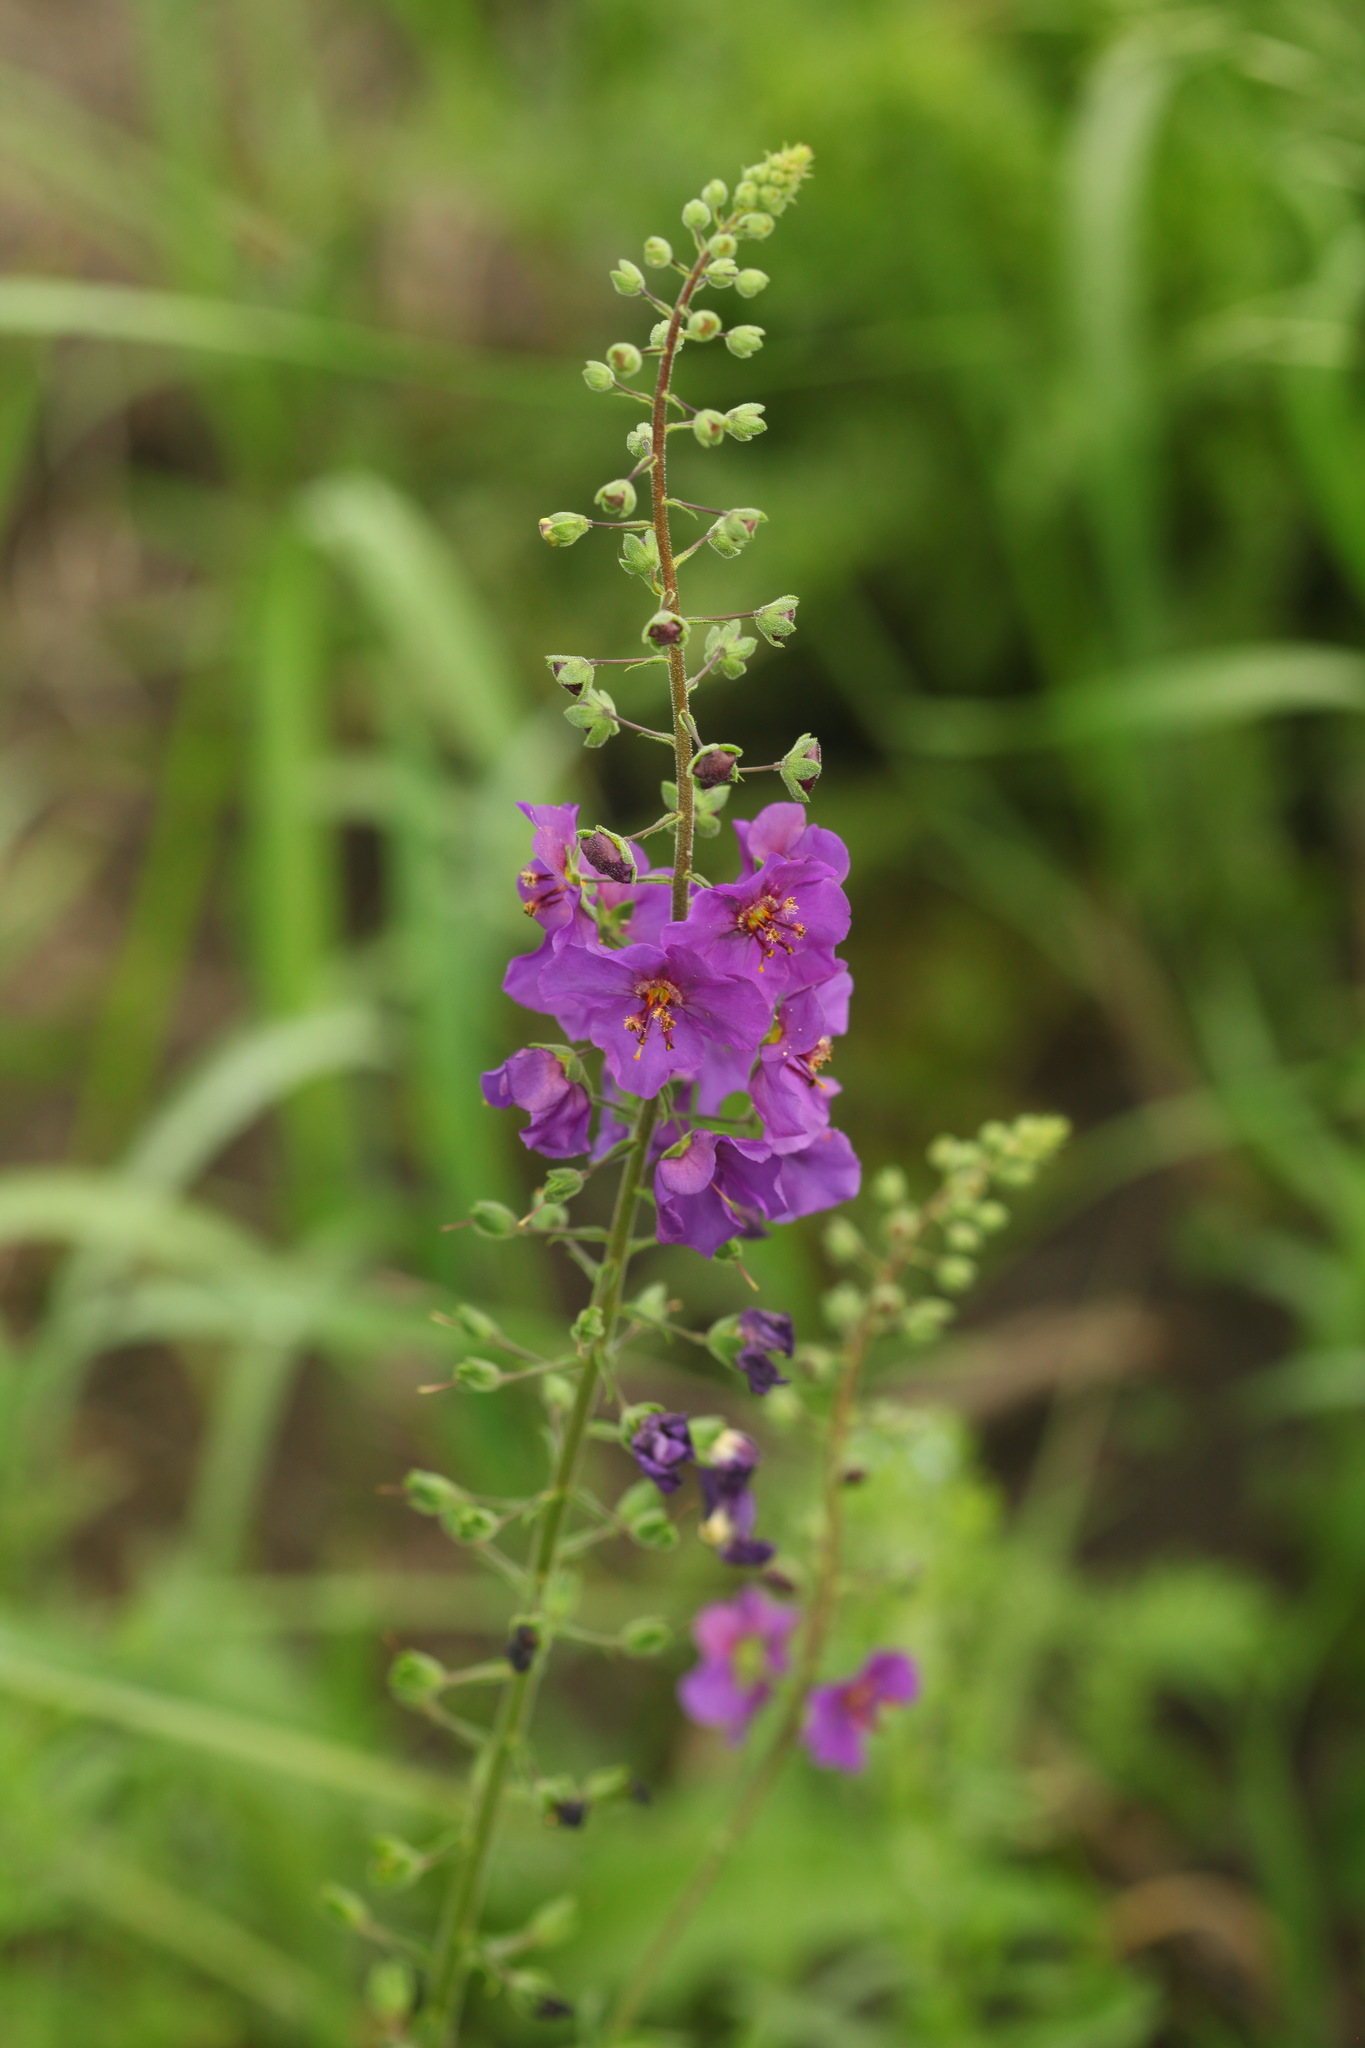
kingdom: Plantae
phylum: Tracheophyta
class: Magnoliopsida
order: Lamiales
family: Scrophulariaceae
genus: Verbascum
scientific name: Verbascum phoeniceum
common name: Purple mullein
